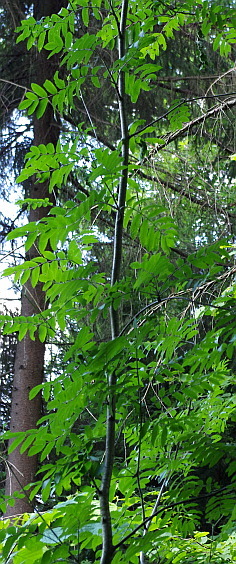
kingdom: Plantae
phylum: Tracheophyta
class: Magnoliopsida
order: Rosales
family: Rosaceae
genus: Sorbus
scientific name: Sorbus aucuparia
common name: Rowan
